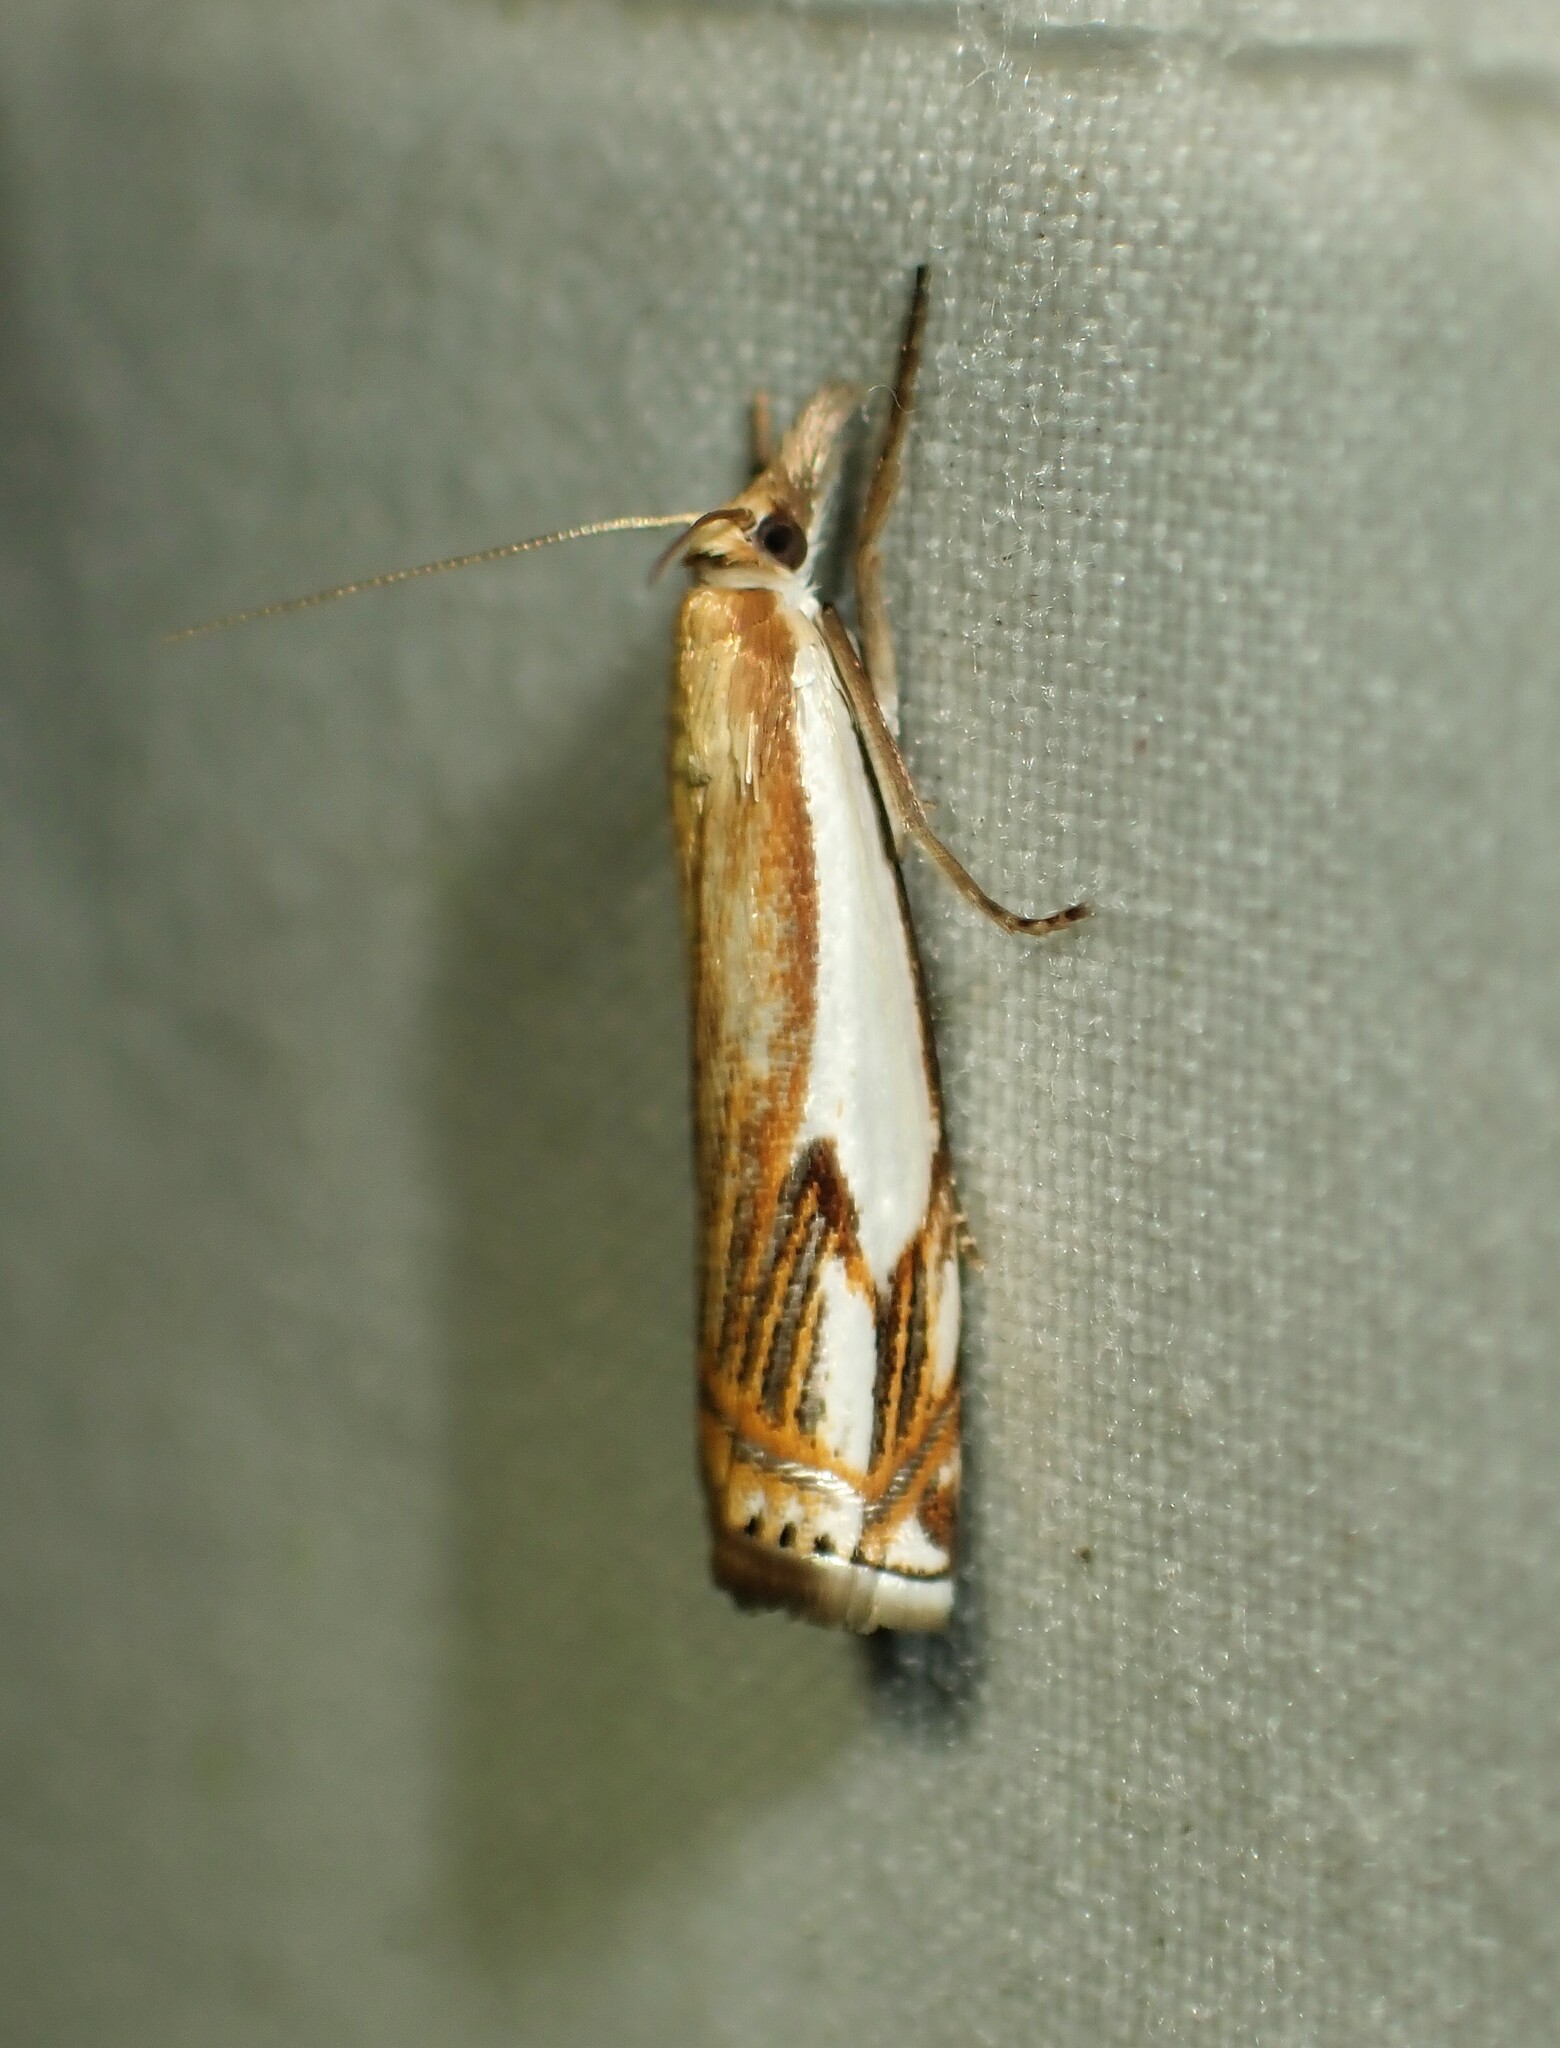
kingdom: Animalia
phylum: Arthropoda
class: Insecta
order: Lepidoptera
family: Crambidae
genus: Crambus
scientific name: Crambus agitatellus
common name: Double-banded grass-veneer
